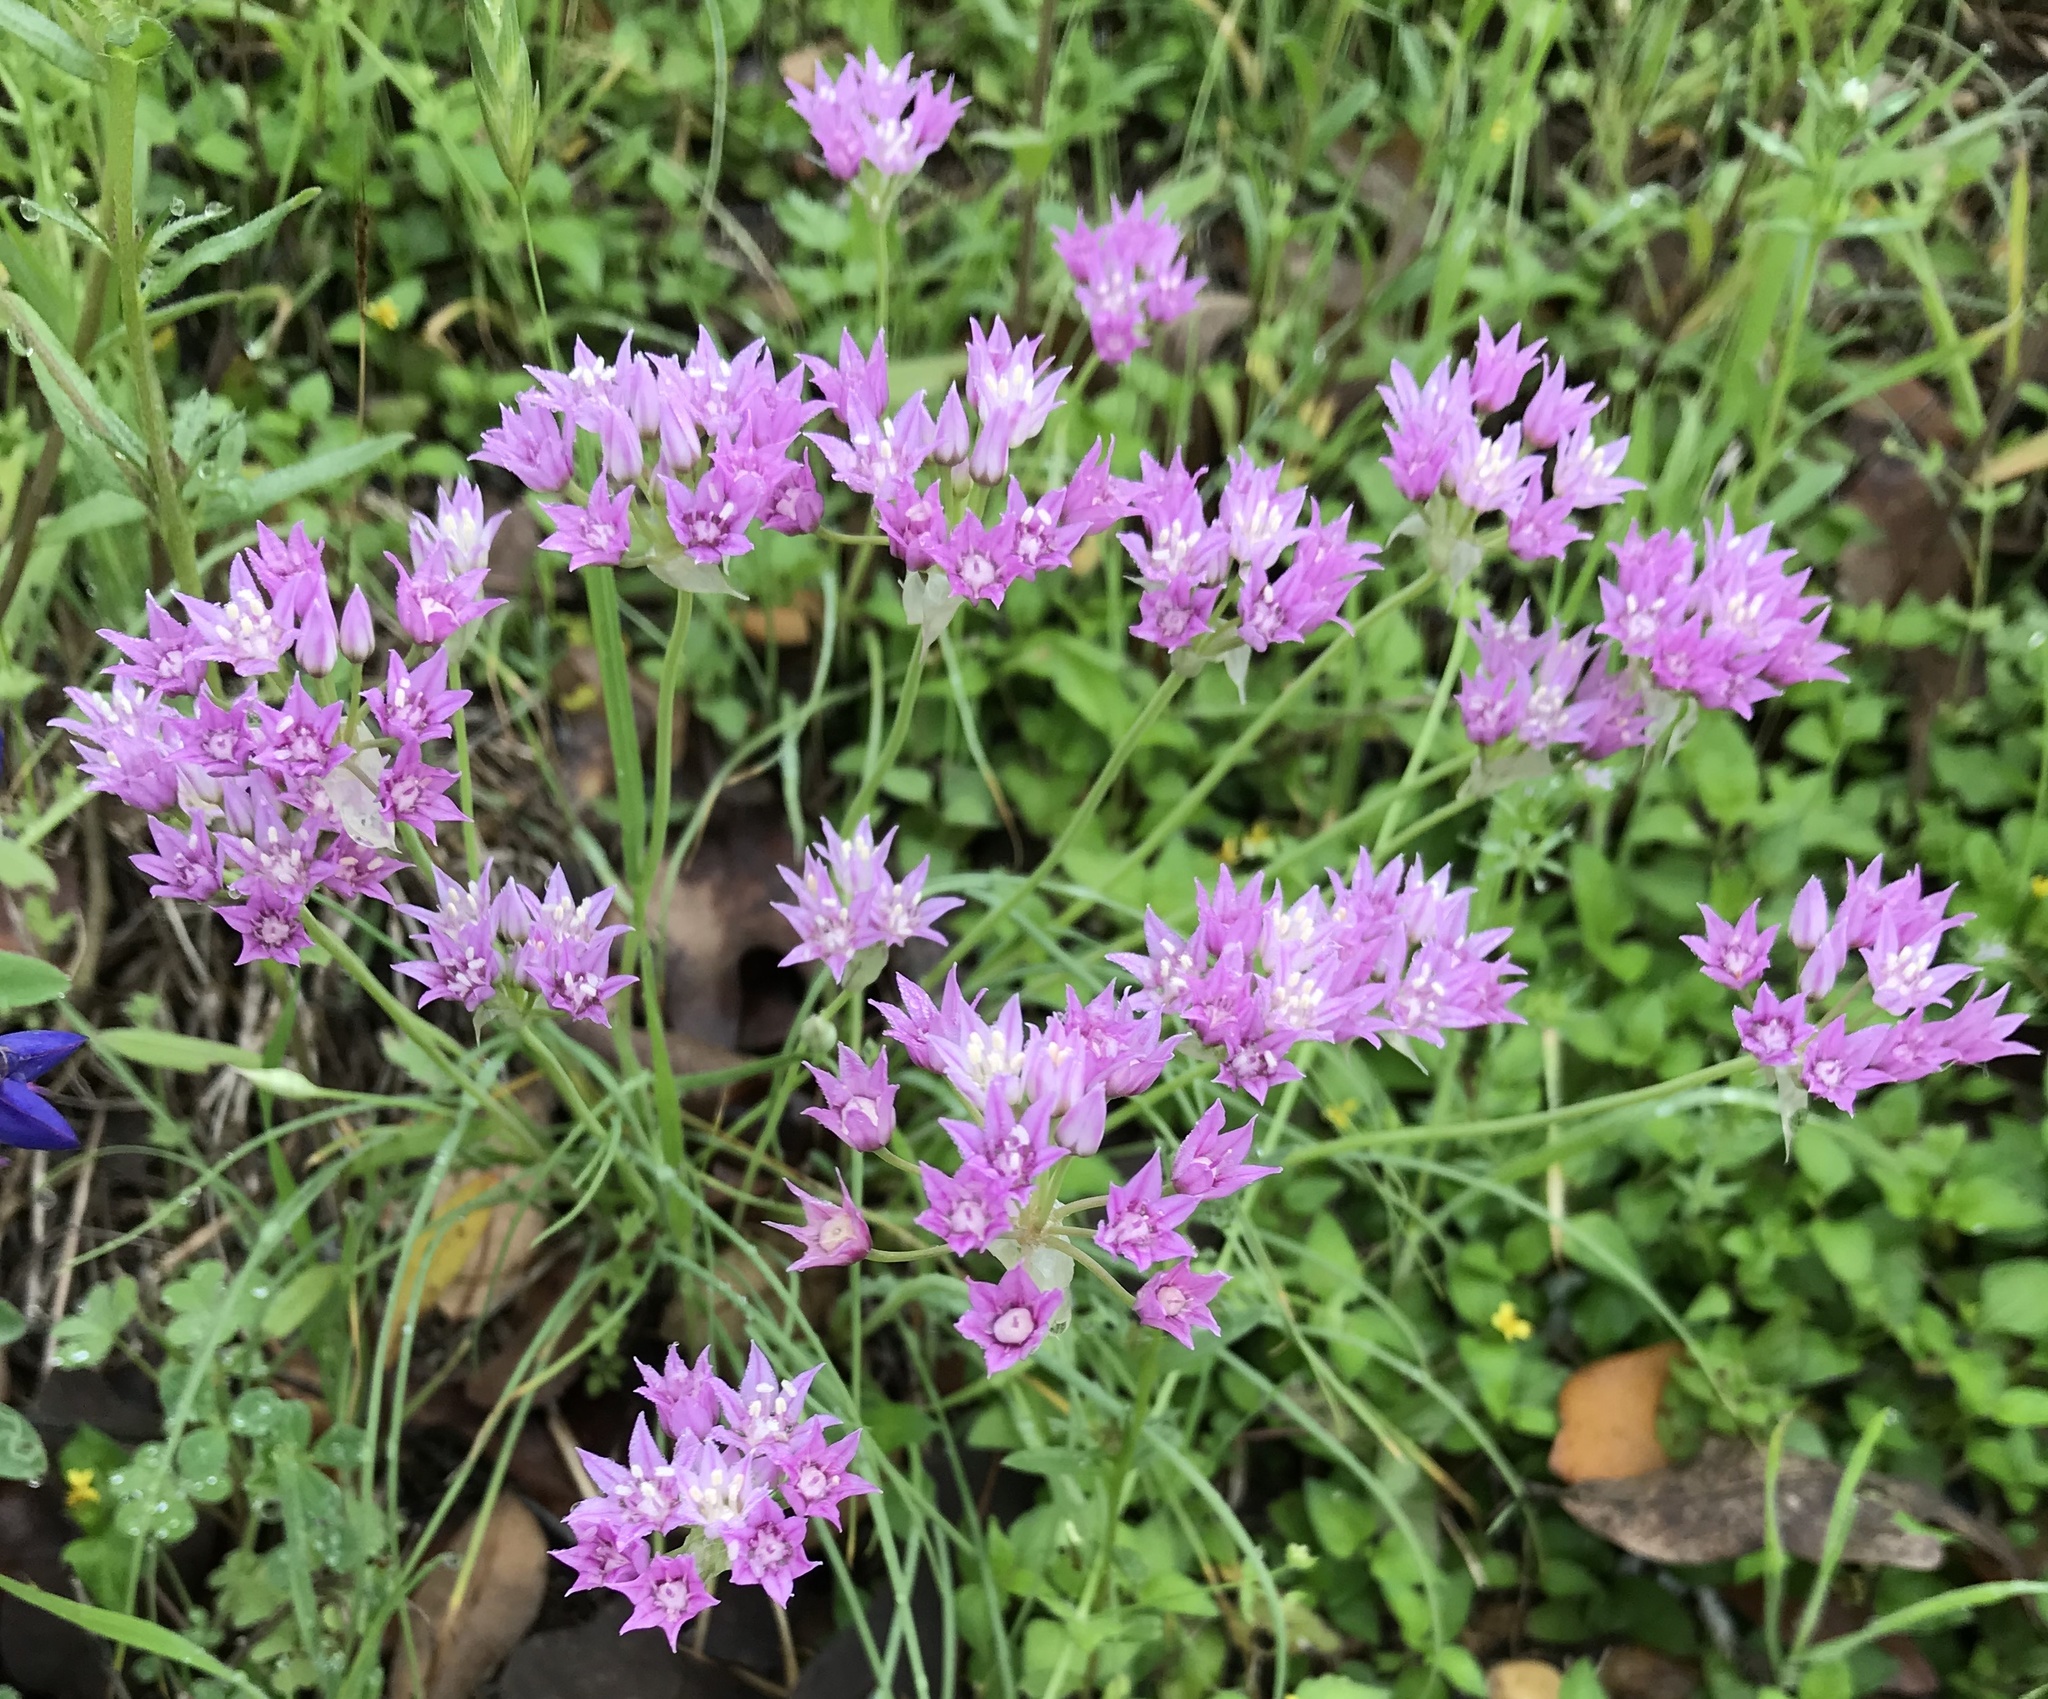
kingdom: Plantae
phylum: Tracheophyta
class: Liliopsida
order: Asparagales
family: Amaryllidaceae
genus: Allium
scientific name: Allium drummondii
